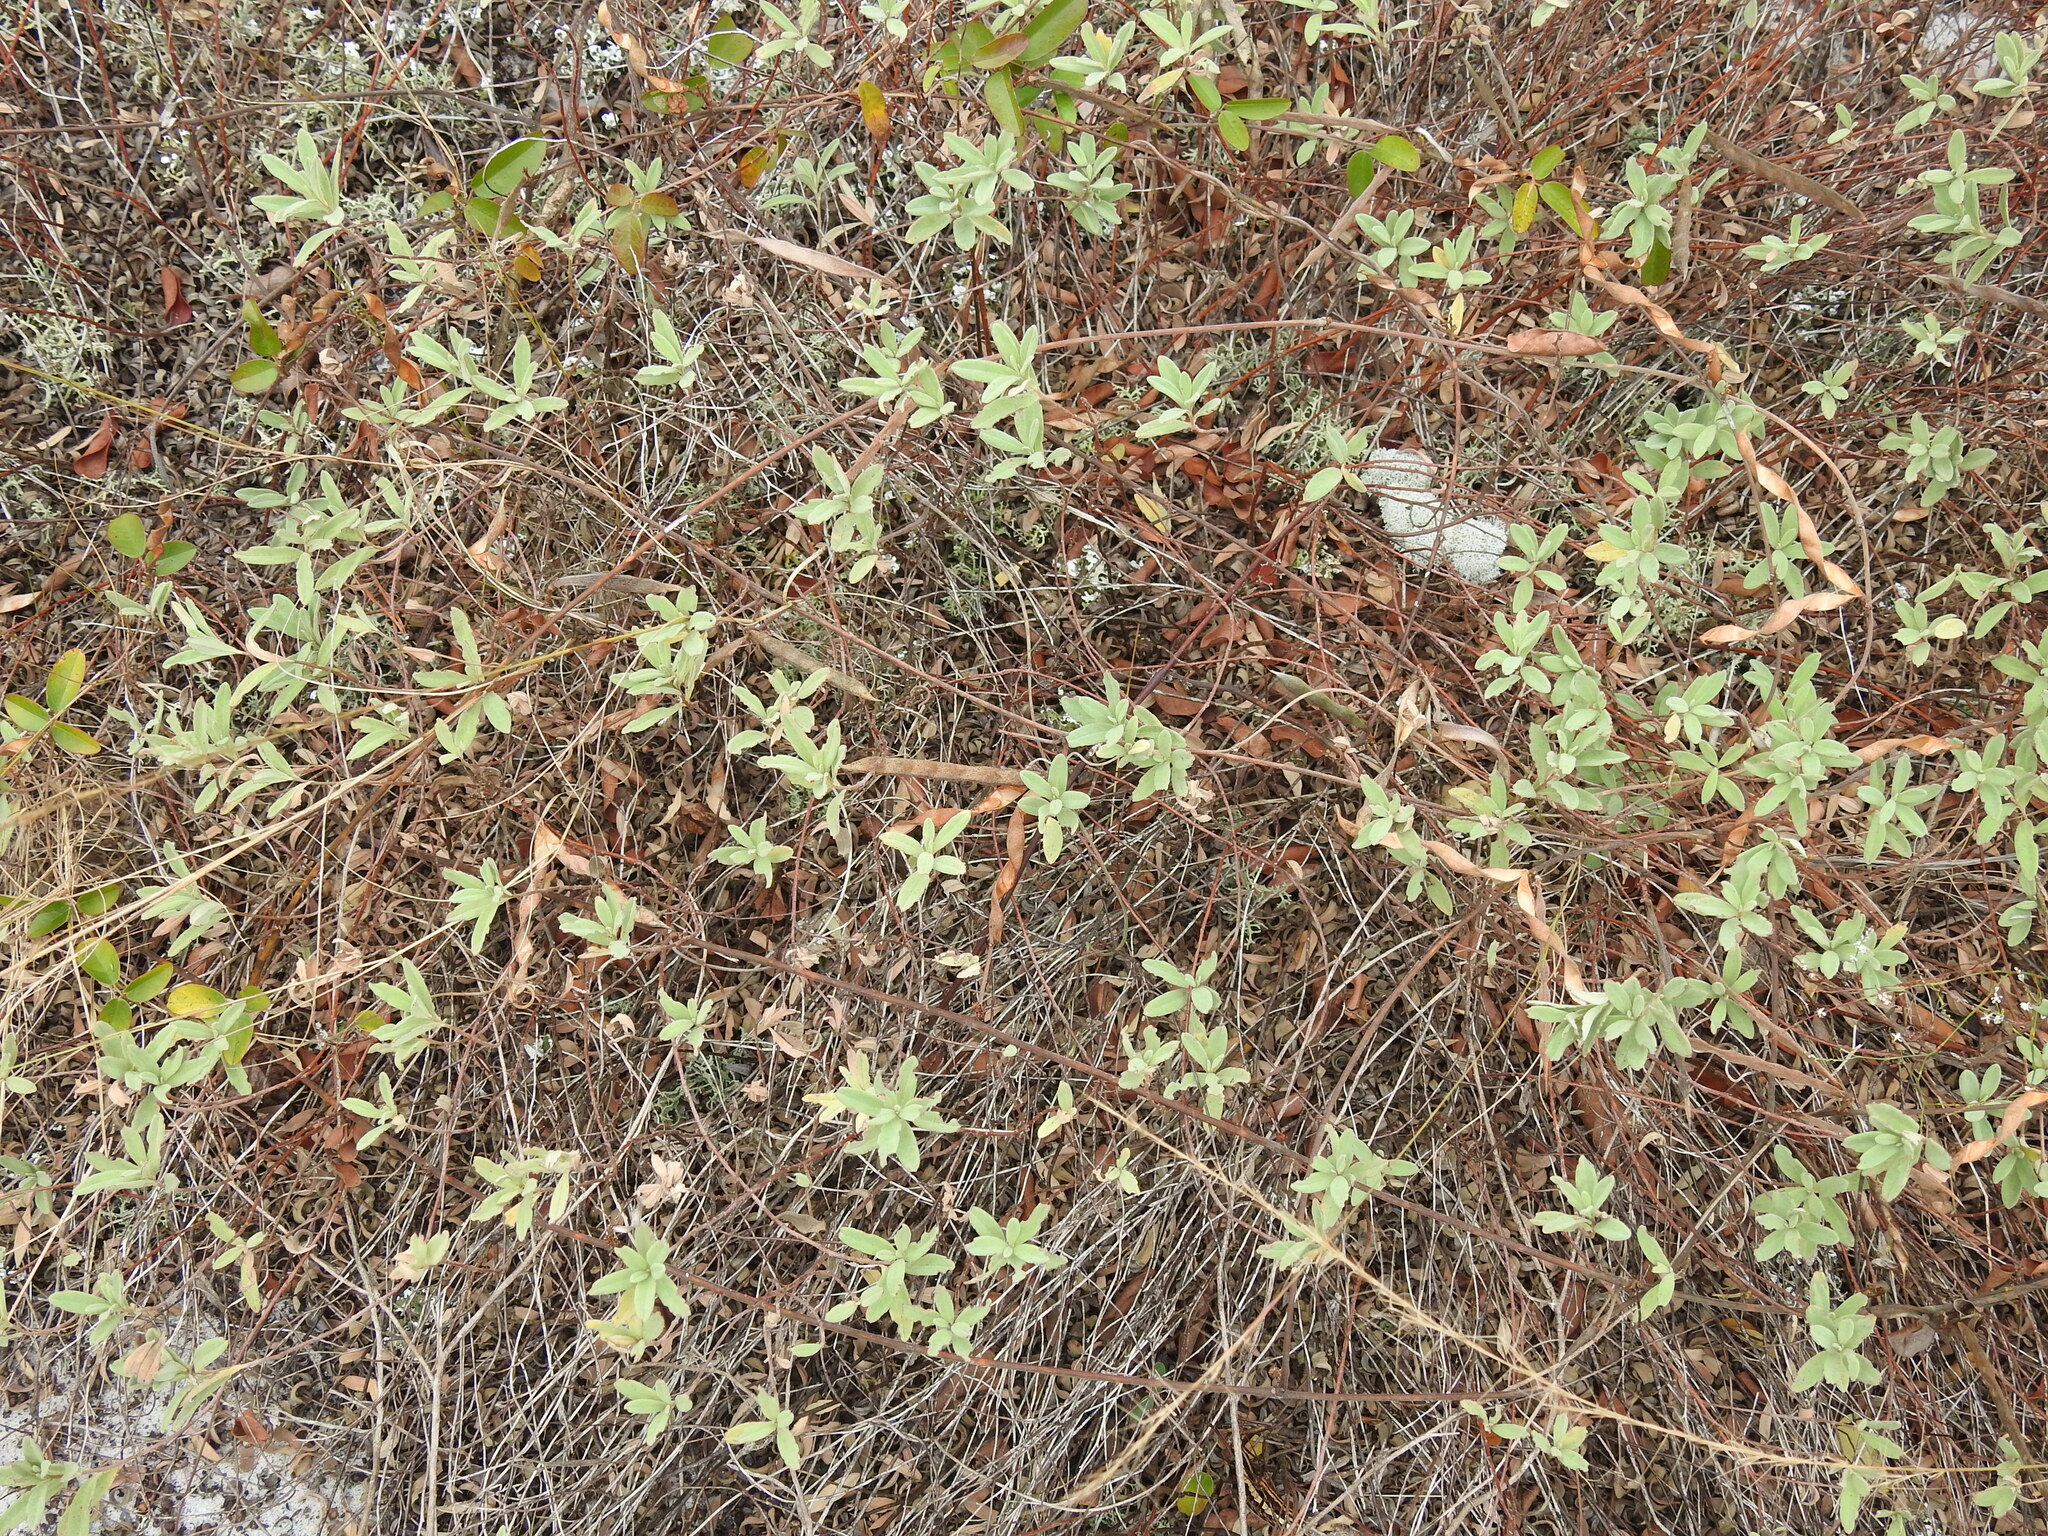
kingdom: Plantae
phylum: Tracheophyta
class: Magnoliopsida
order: Malvales
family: Cistaceae
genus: Crocanthemum
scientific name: Crocanthemum nashii
